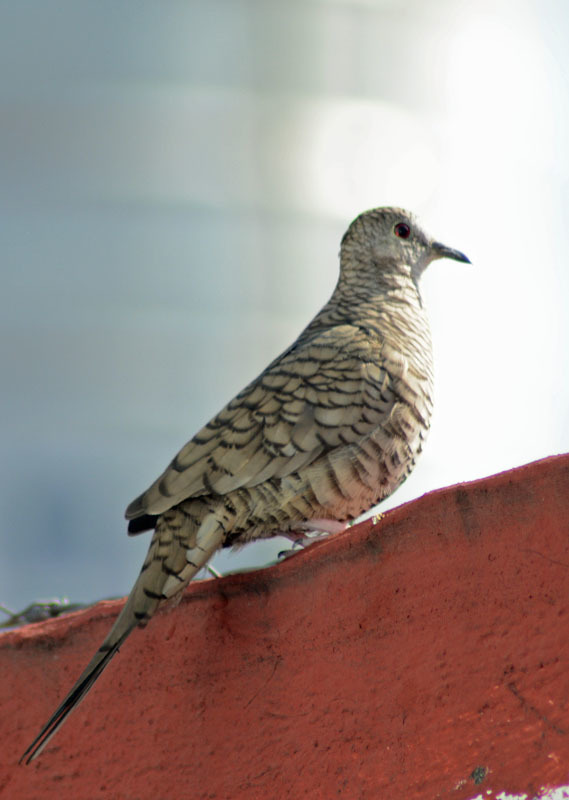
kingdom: Animalia
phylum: Chordata
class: Aves
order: Columbiformes
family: Columbidae
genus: Columbina
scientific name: Columbina inca
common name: Inca dove
